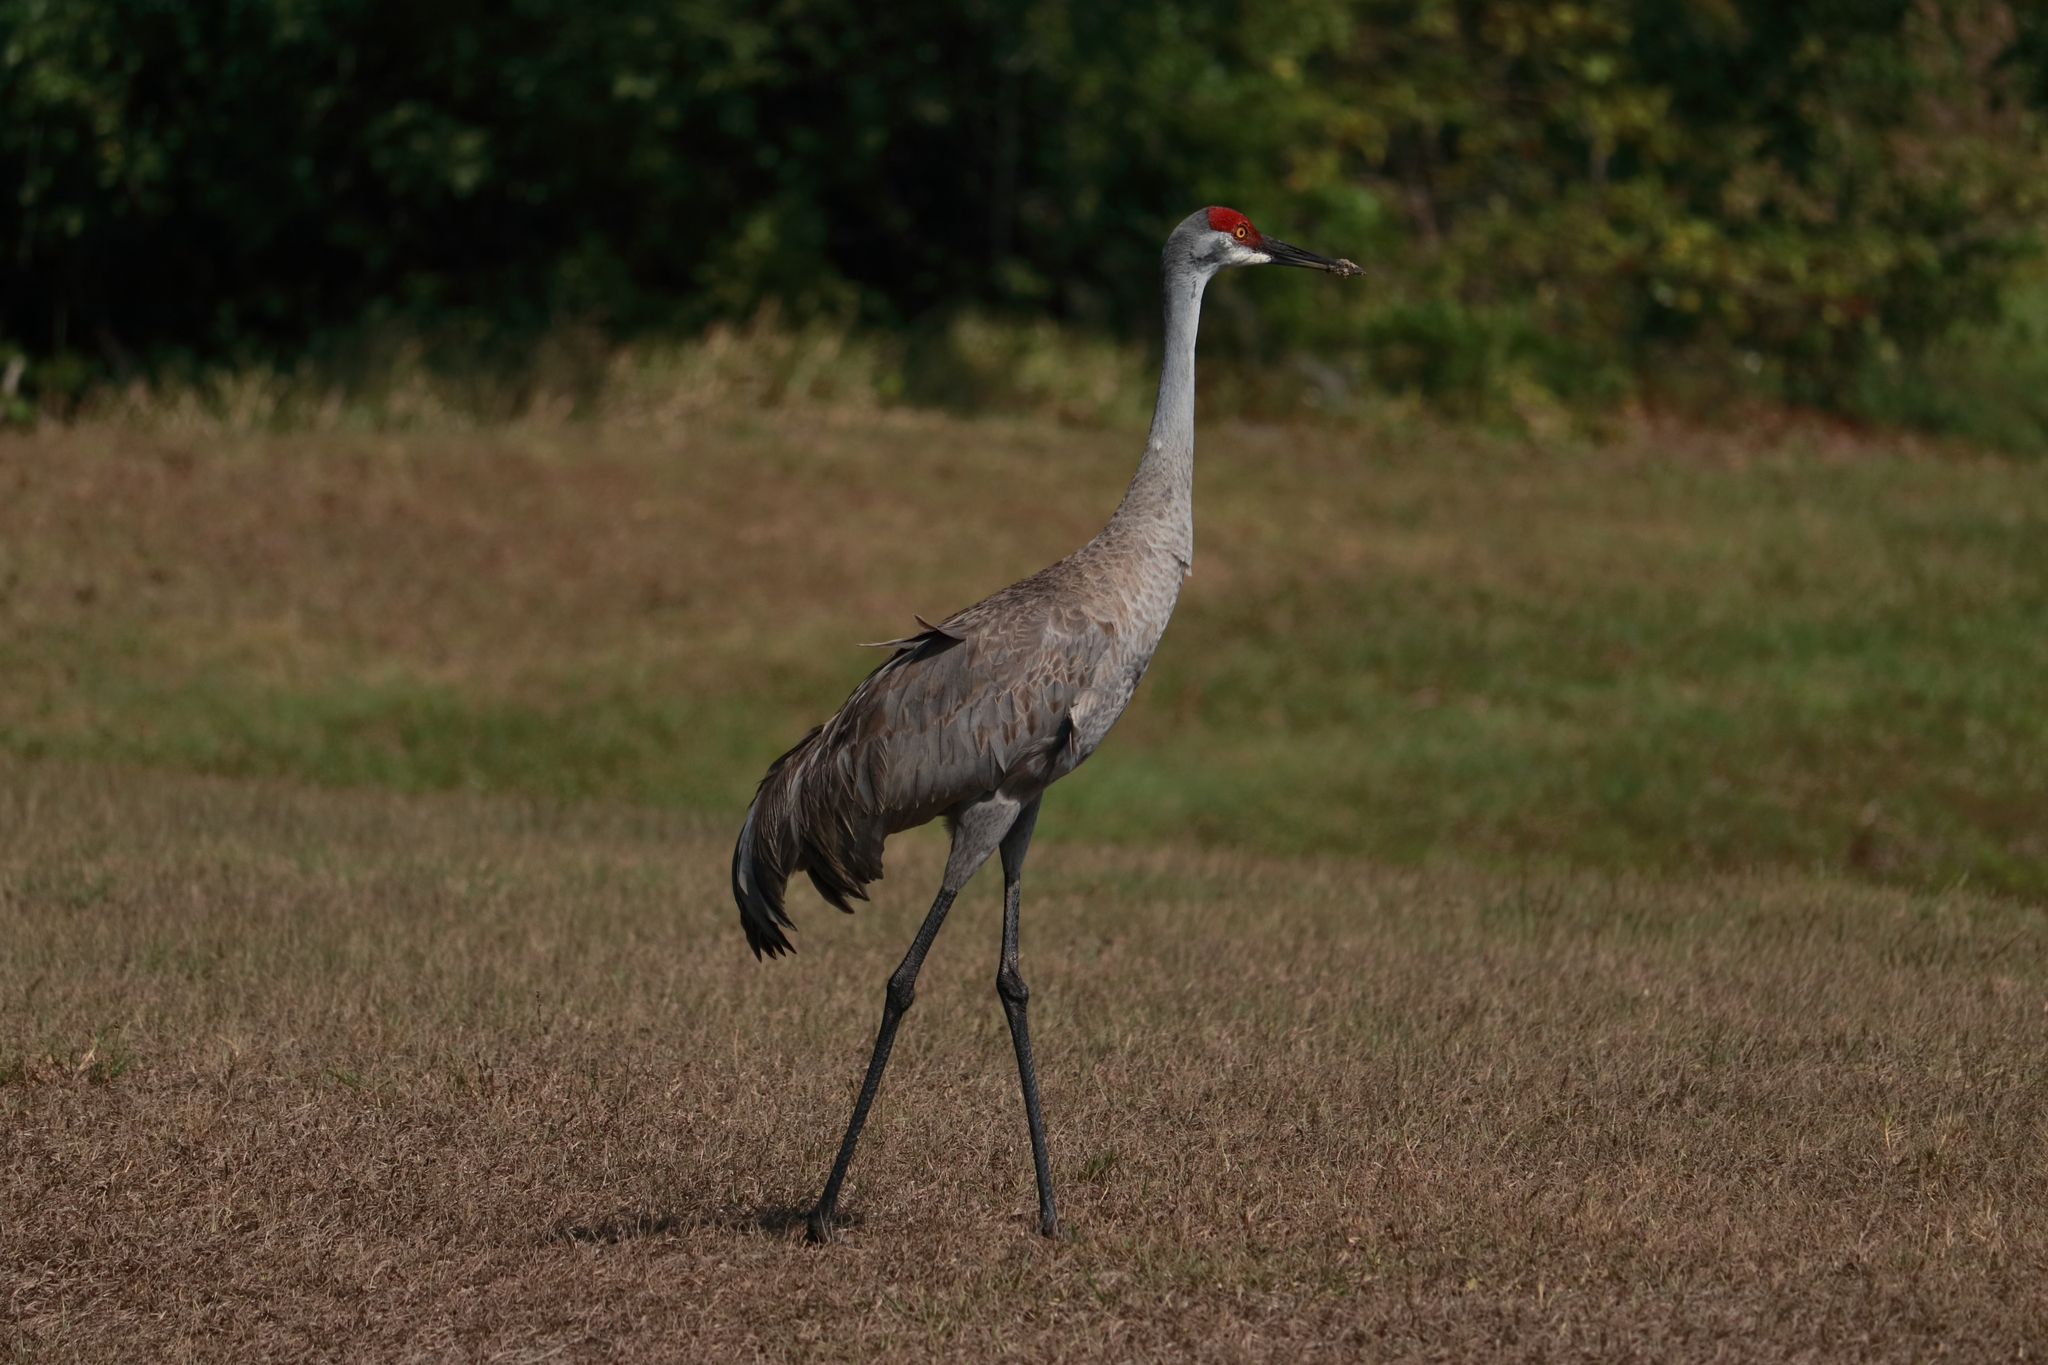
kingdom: Animalia
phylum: Chordata
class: Aves
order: Gruiformes
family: Gruidae
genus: Grus
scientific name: Grus canadensis
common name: Sandhill crane
